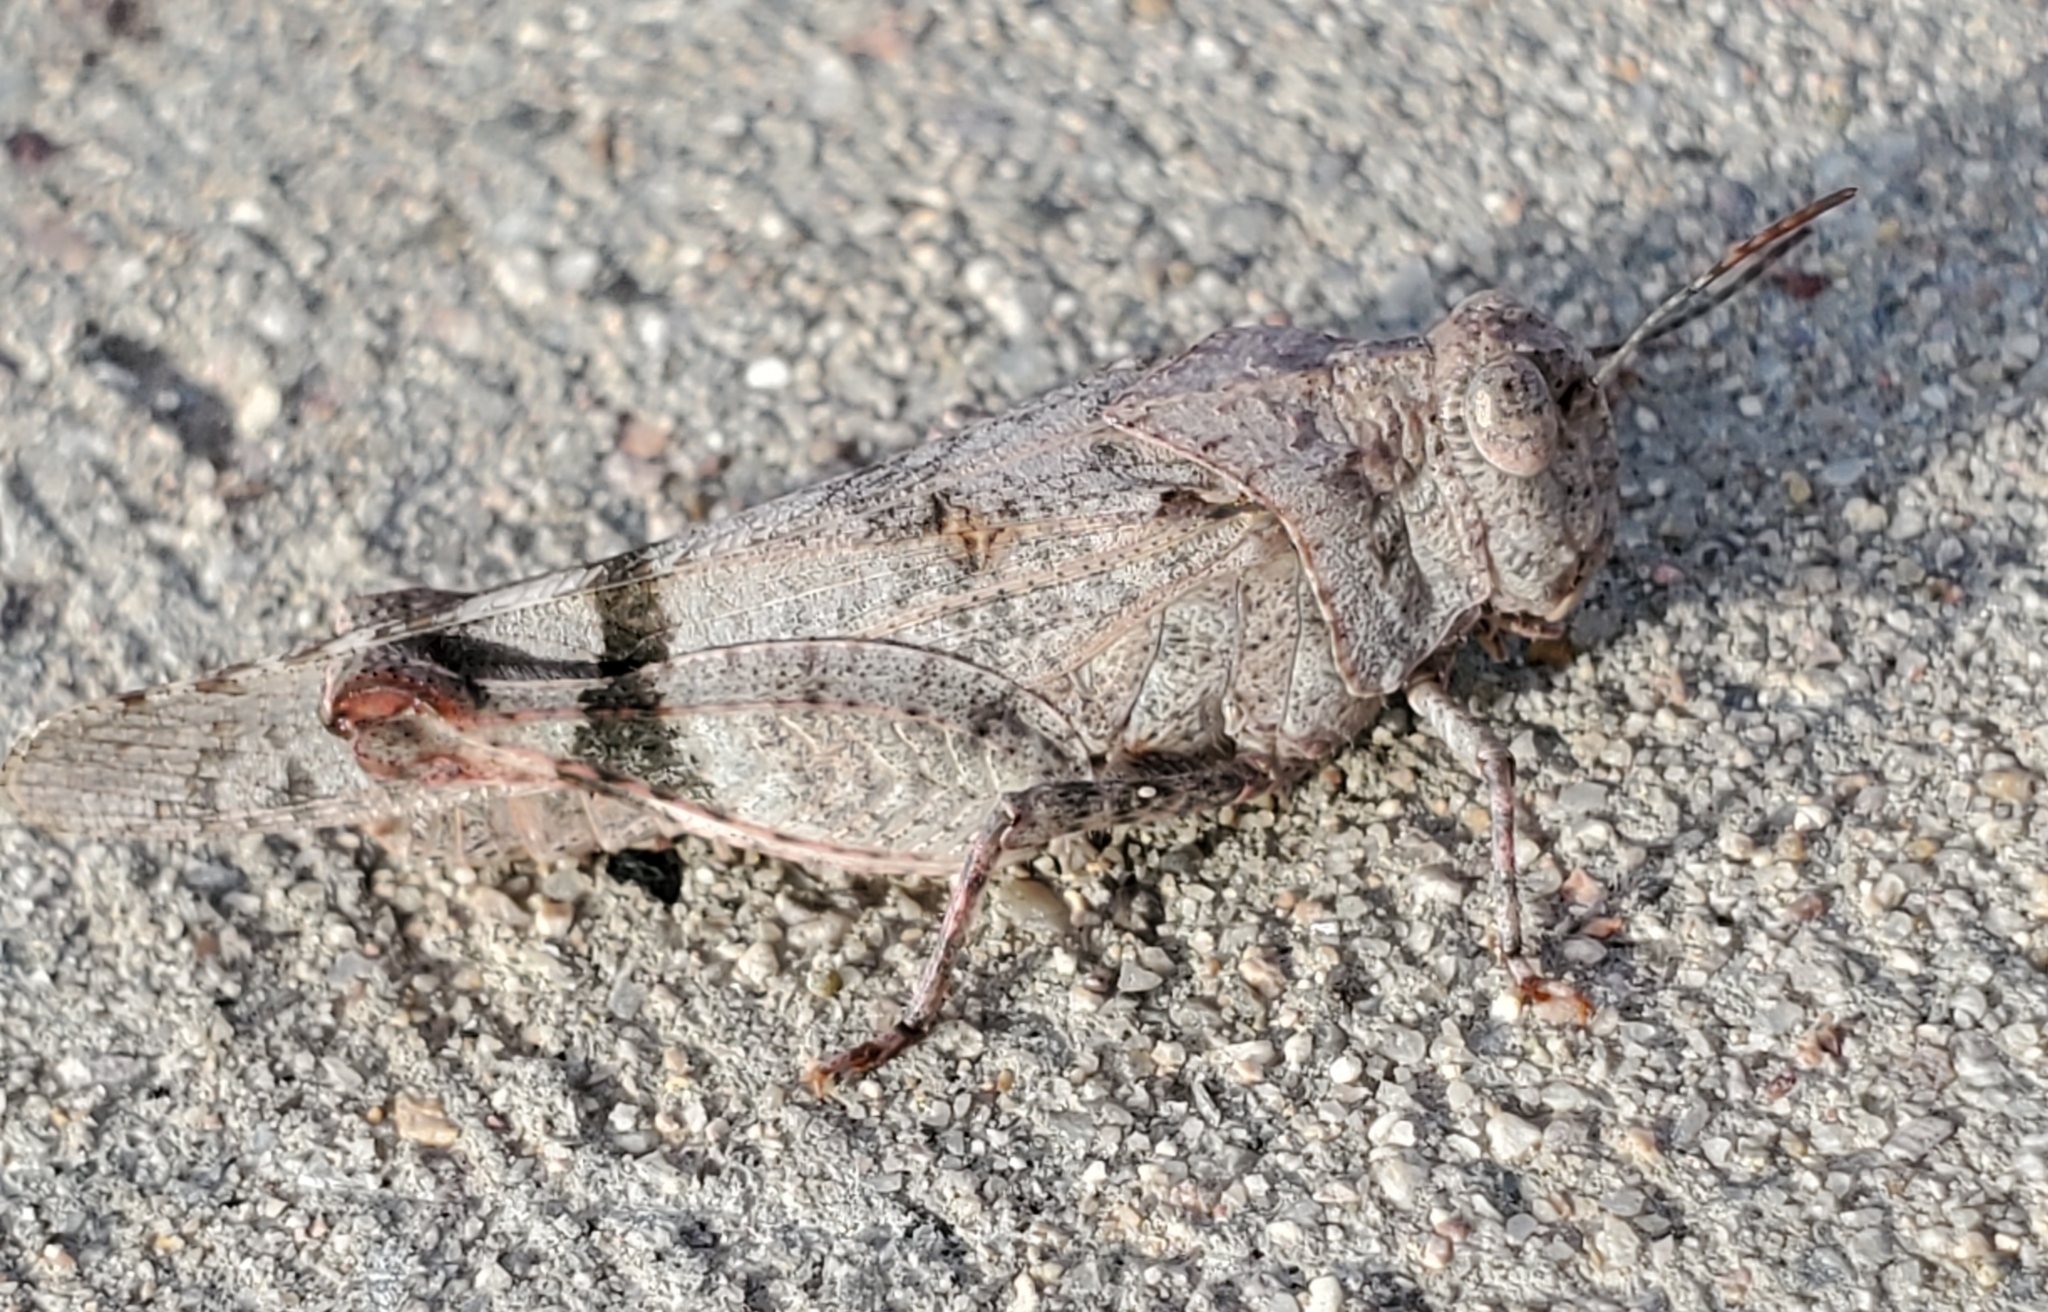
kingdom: Animalia
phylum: Arthropoda
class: Insecta
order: Orthoptera
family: Acrididae
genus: Lactista
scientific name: Lactista azteca
